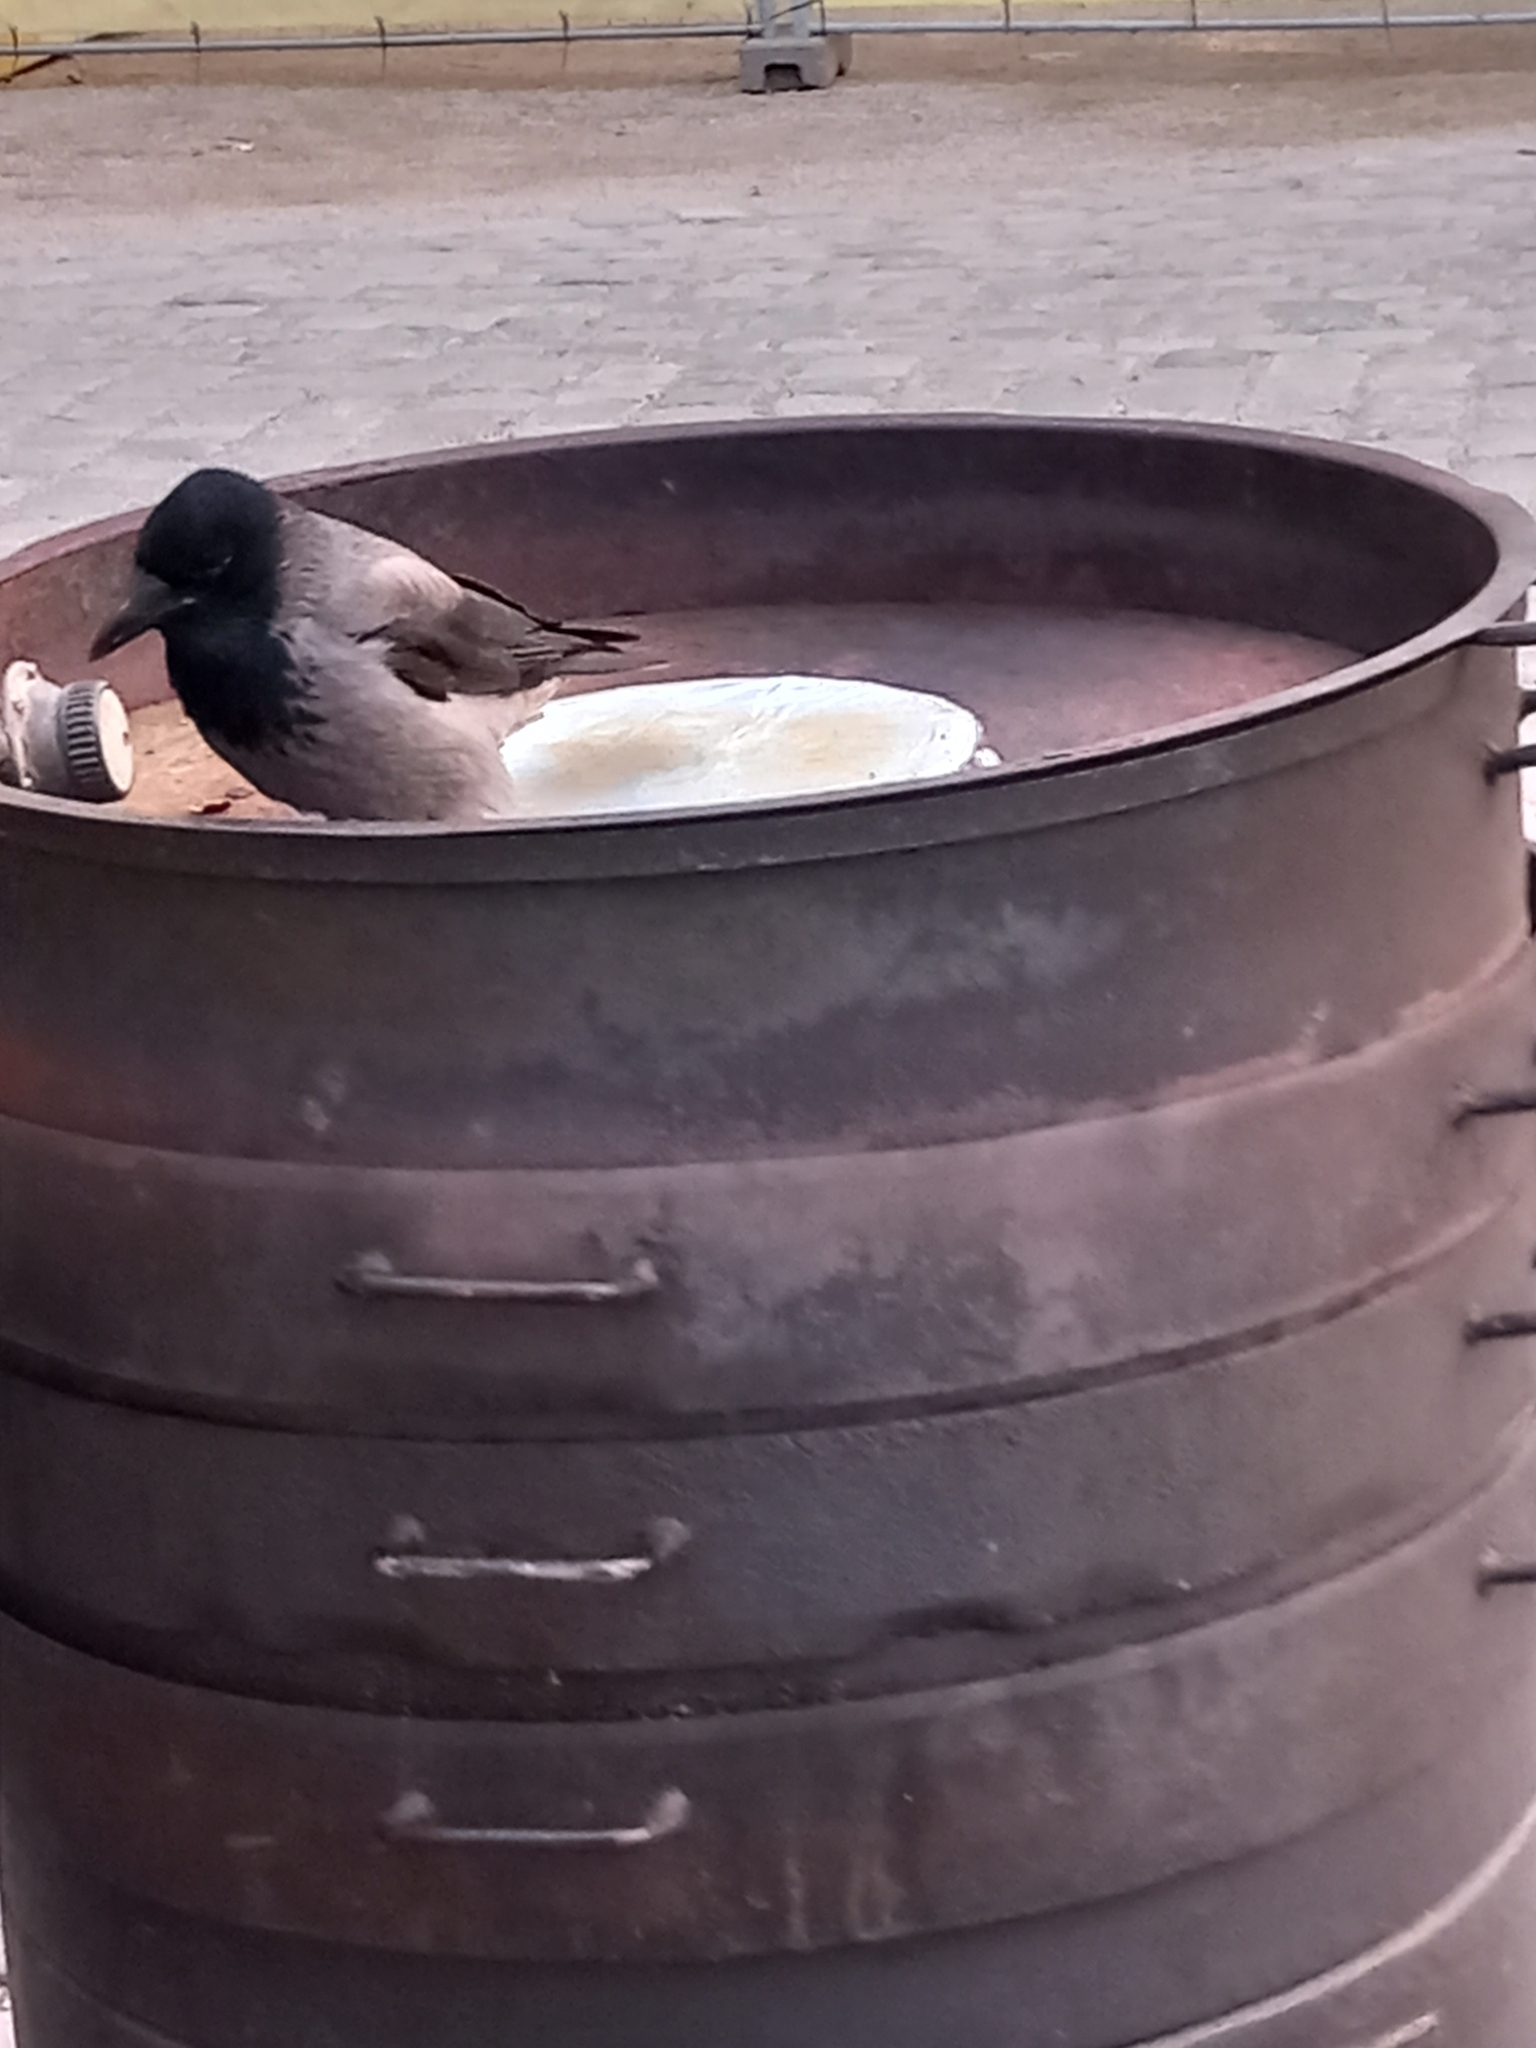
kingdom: Animalia
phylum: Chordata
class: Aves
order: Passeriformes
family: Corvidae
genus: Corvus
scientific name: Corvus cornix
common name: Hooded crow
